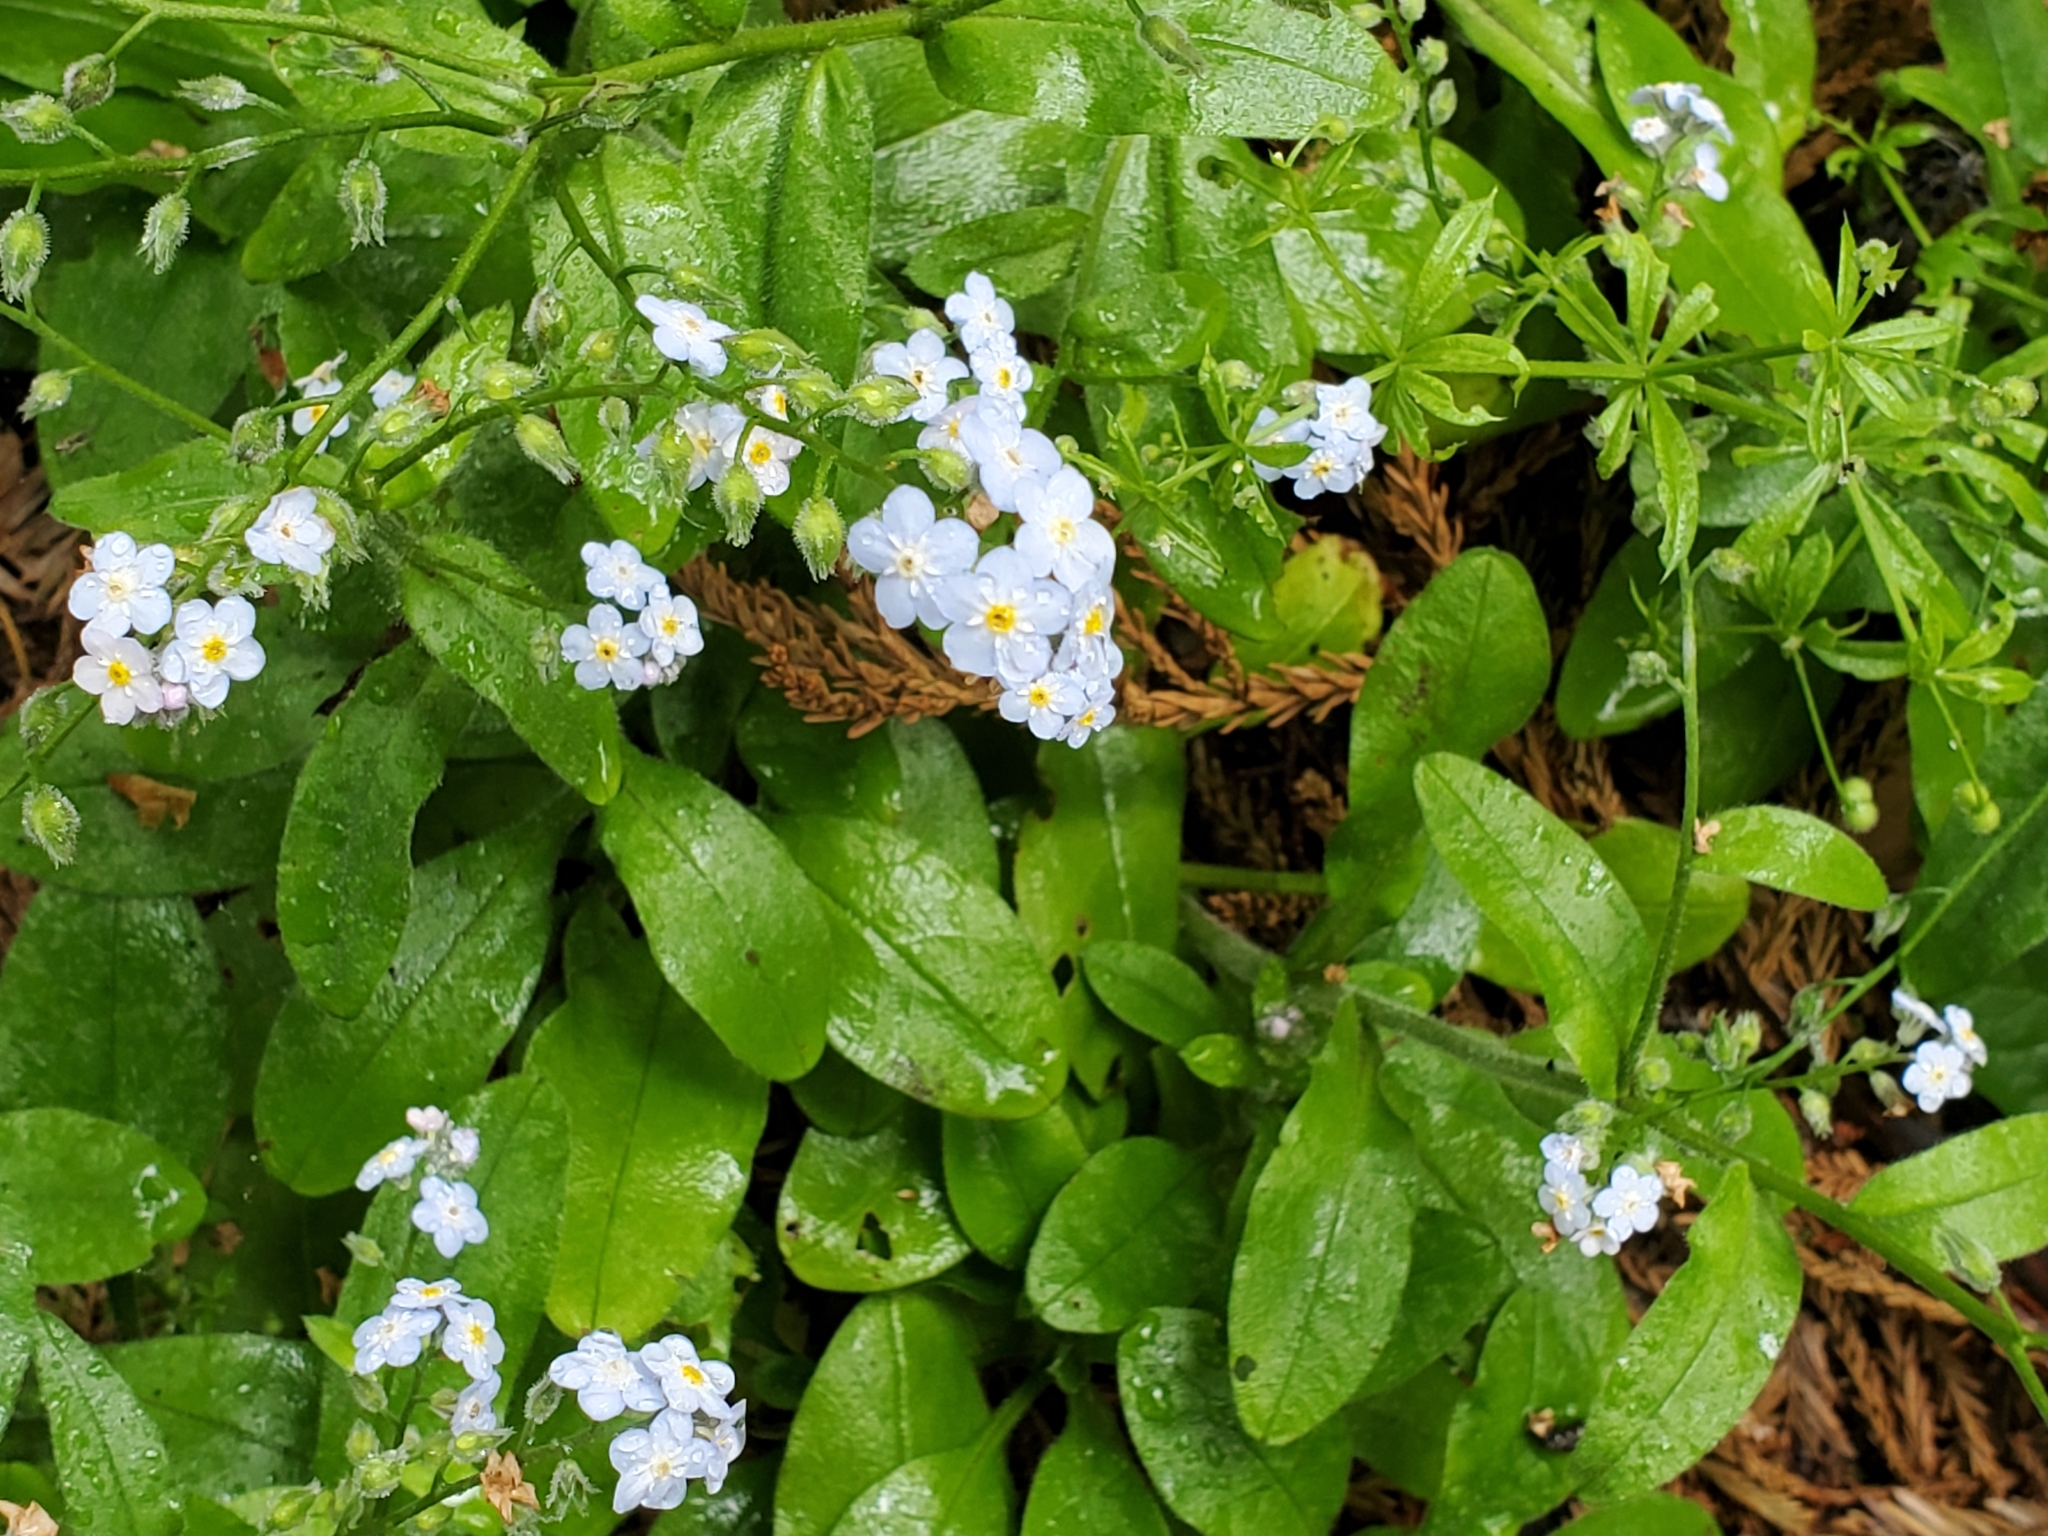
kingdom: Plantae
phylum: Tracheophyta
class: Magnoliopsida
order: Boraginales
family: Boraginaceae
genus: Myosotis
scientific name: Myosotis latifolia
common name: Broadleaf forget-me-not
